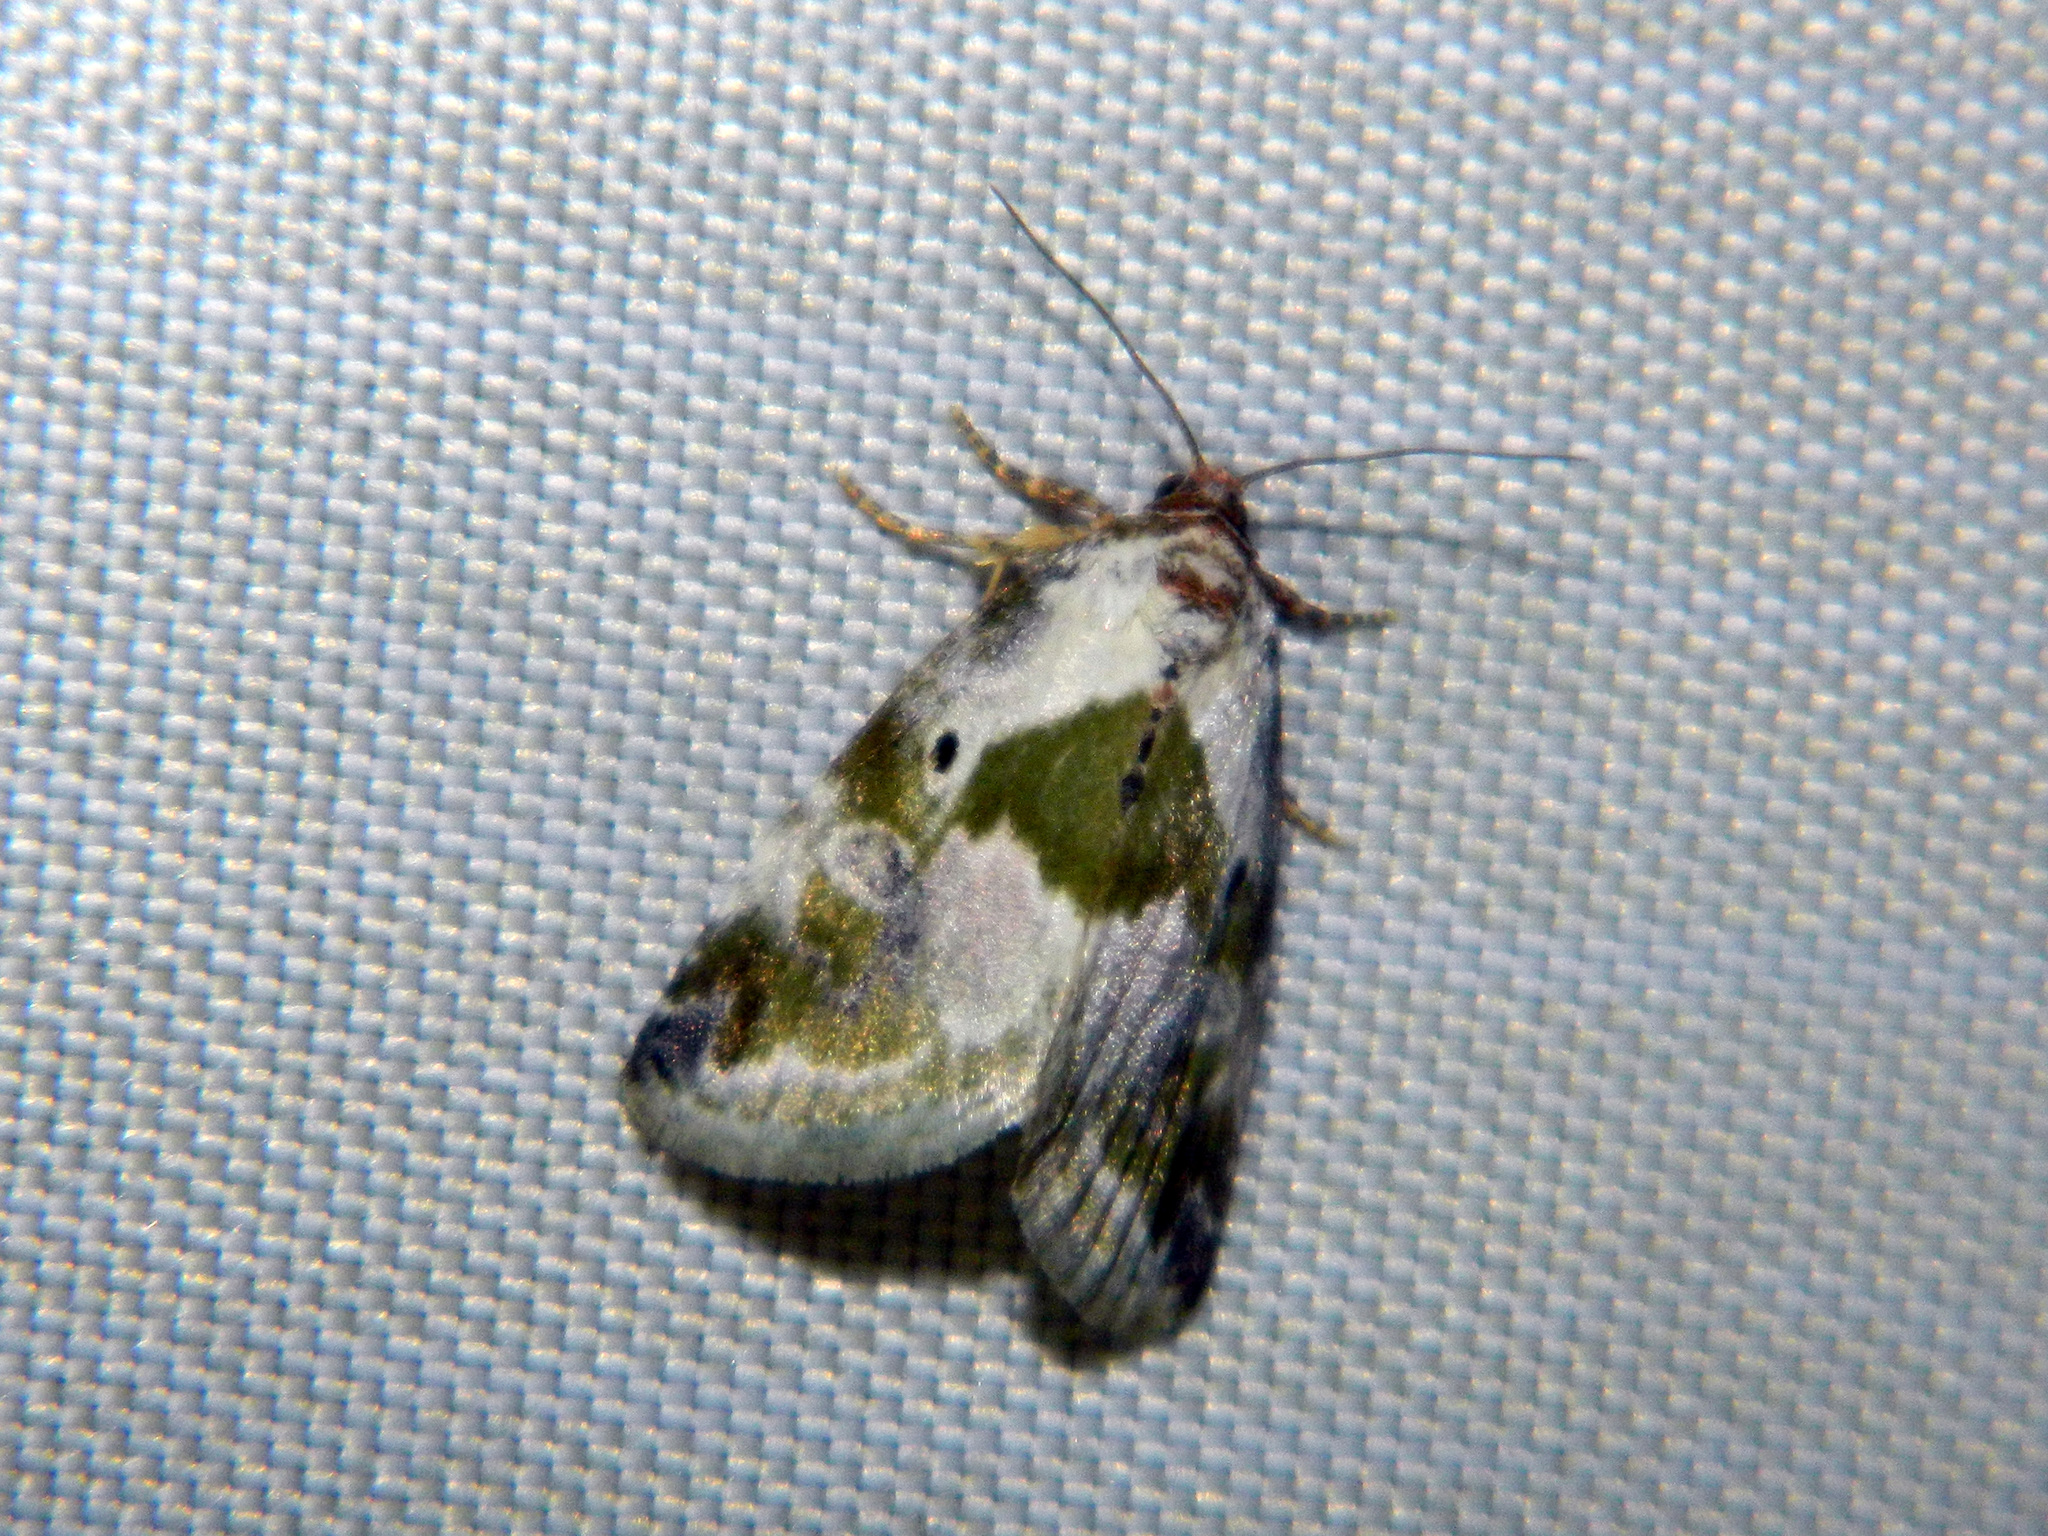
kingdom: Animalia
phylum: Arthropoda
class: Insecta
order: Lepidoptera
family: Noctuidae
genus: Maliattha
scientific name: Maliattha synochitis
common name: Black-dotted glyph
